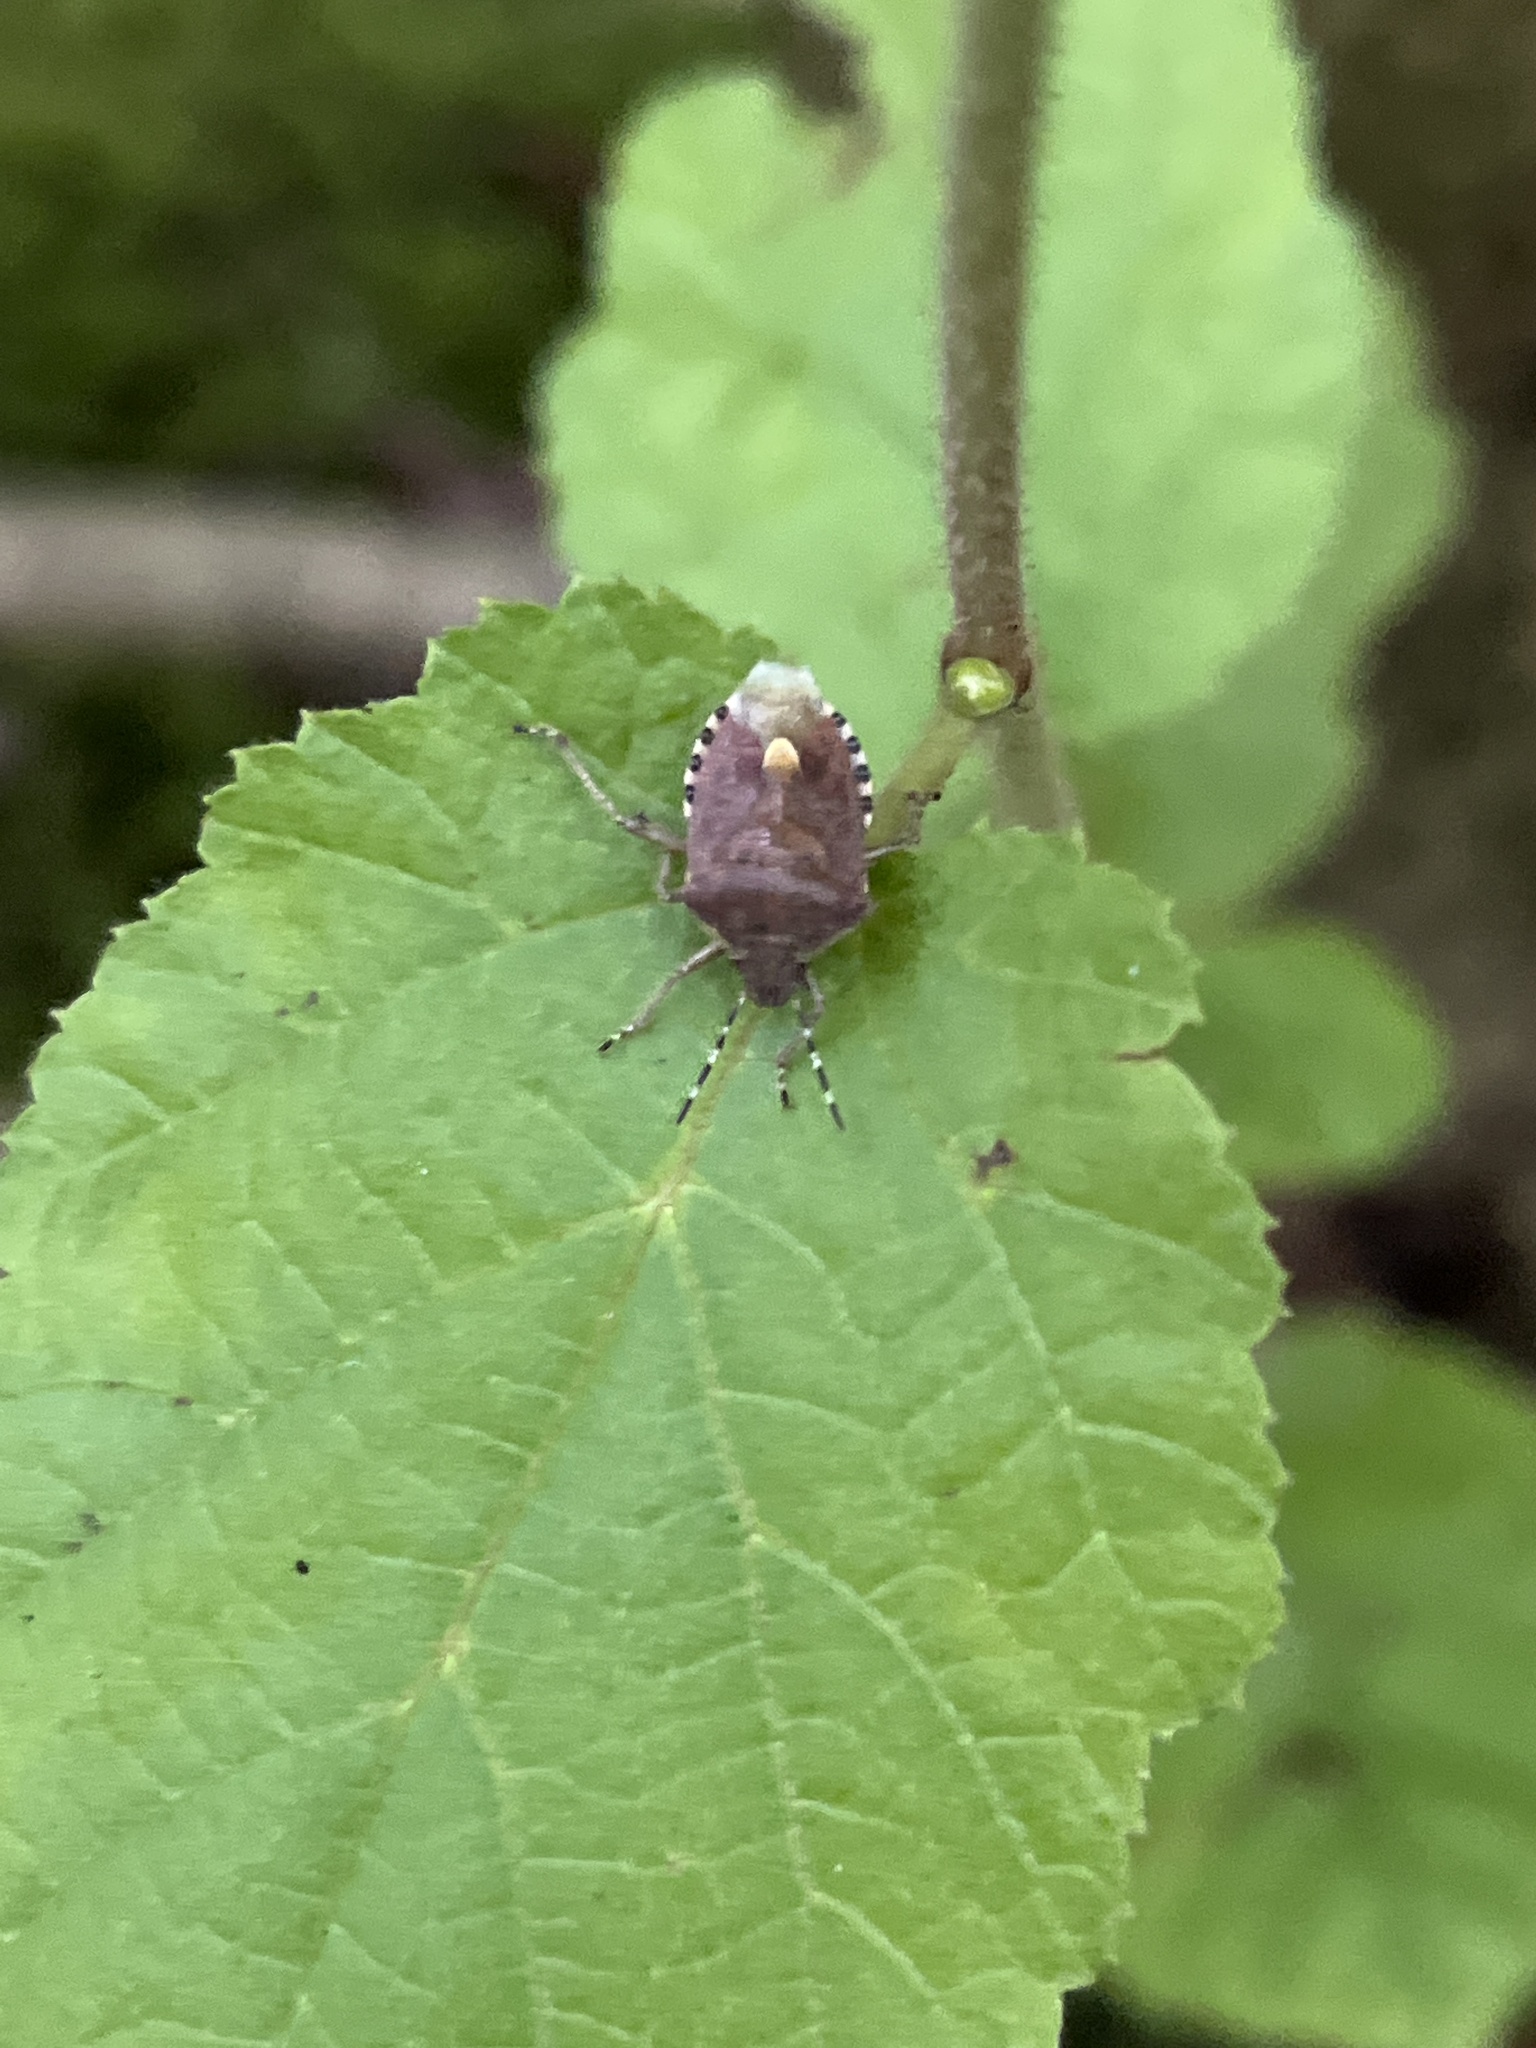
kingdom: Animalia
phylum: Arthropoda
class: Insecta
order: Hemiptera
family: Pentatomidae
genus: Dolycoris
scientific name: Dolycoris baccarum
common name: Sloe bug
